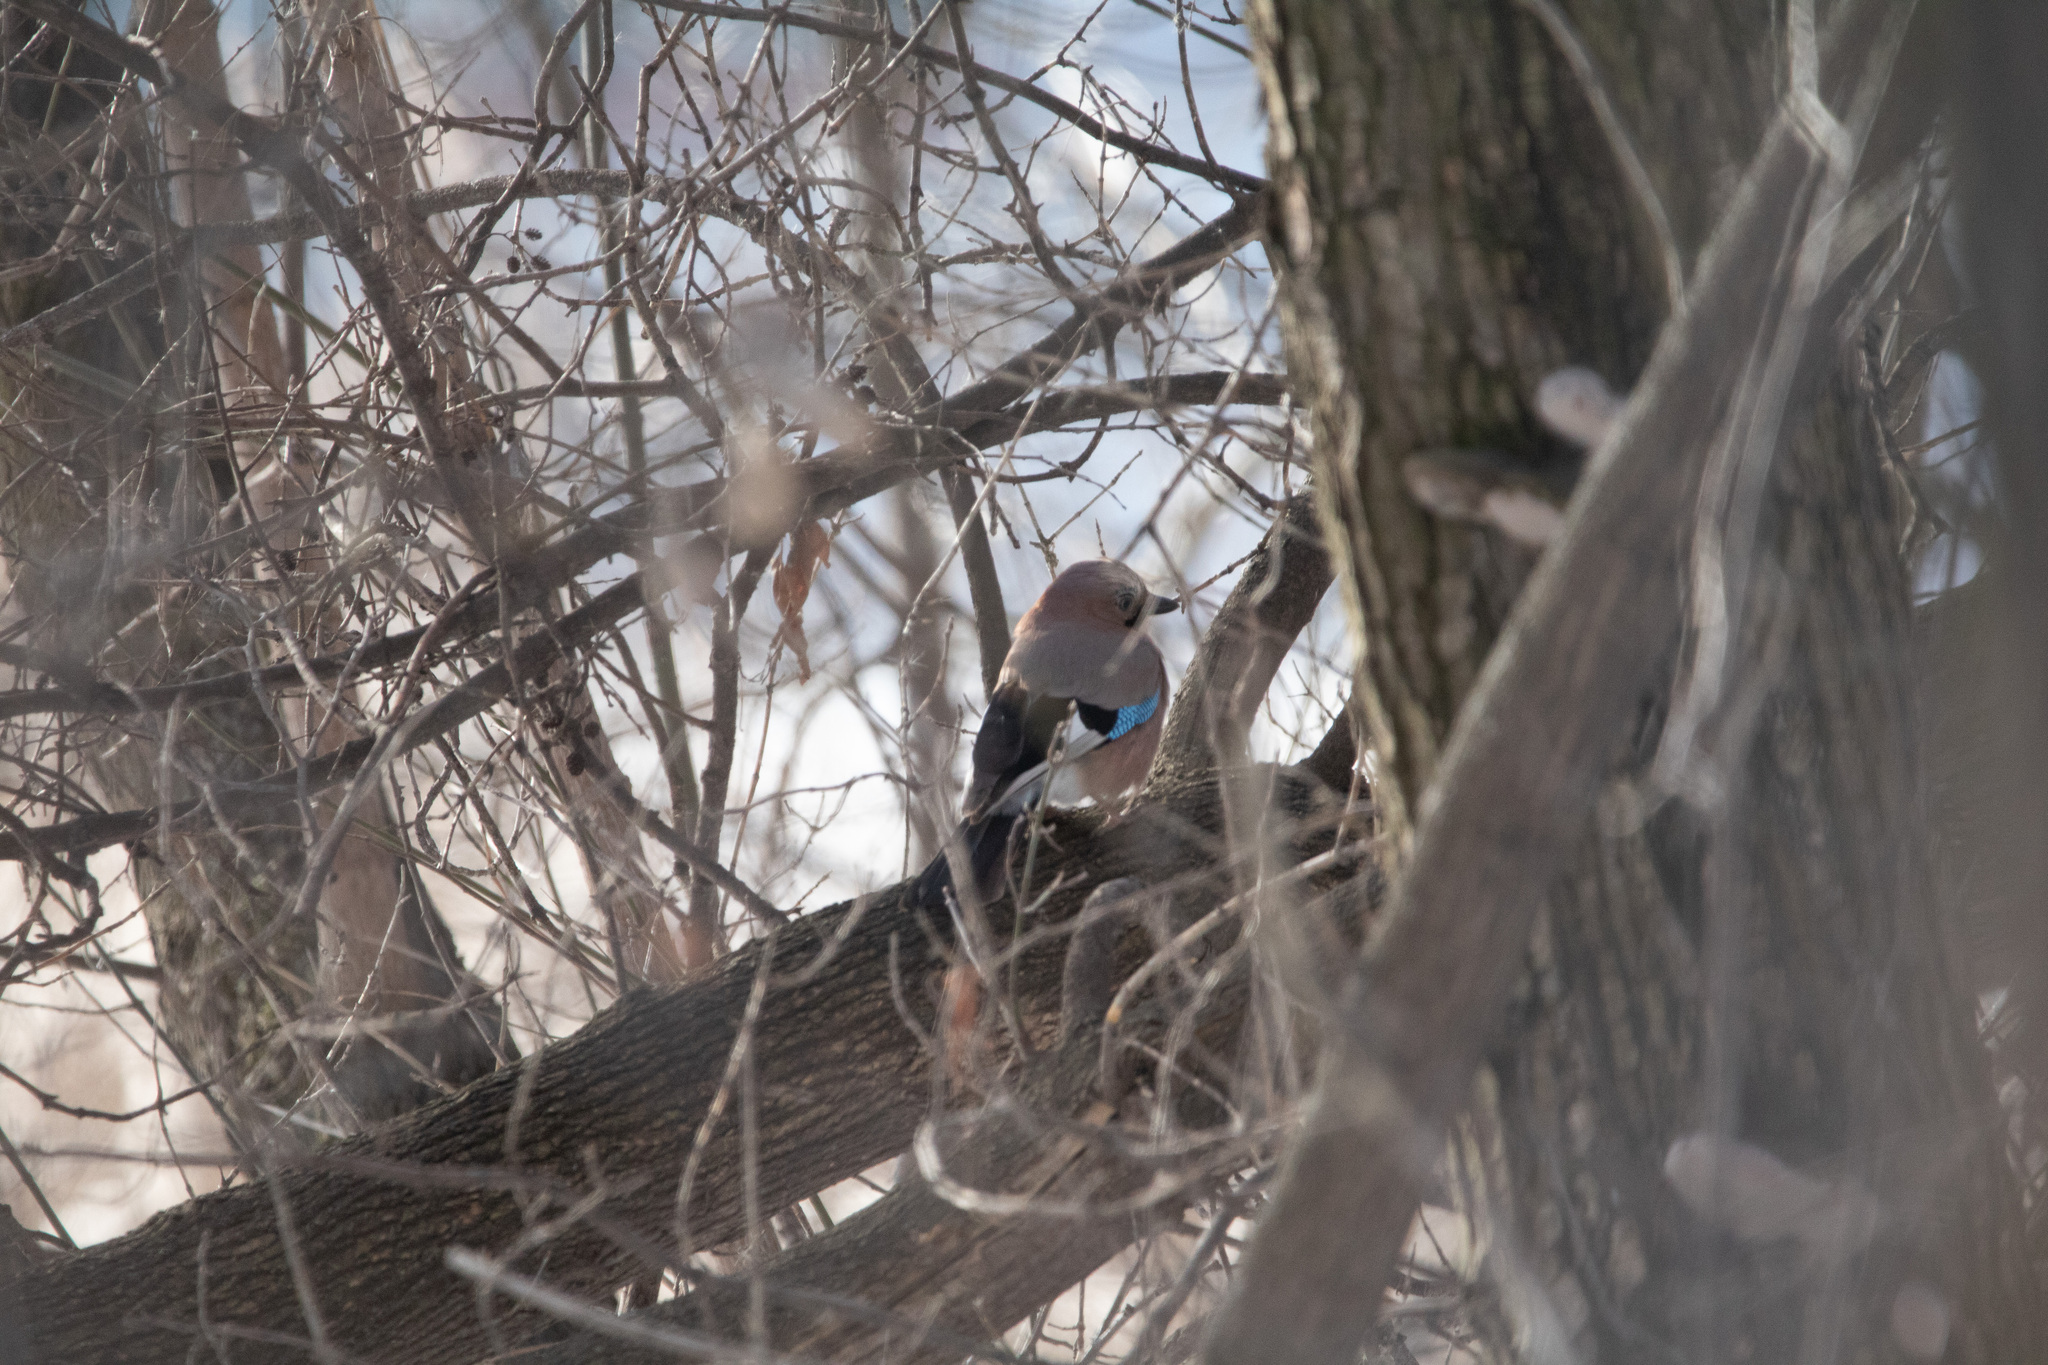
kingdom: Animalia
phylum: Chordata
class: Aves
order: Passeriformes
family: Corvidae
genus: Garrulus
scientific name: Garrulus glandarius
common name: Eurasian jay
